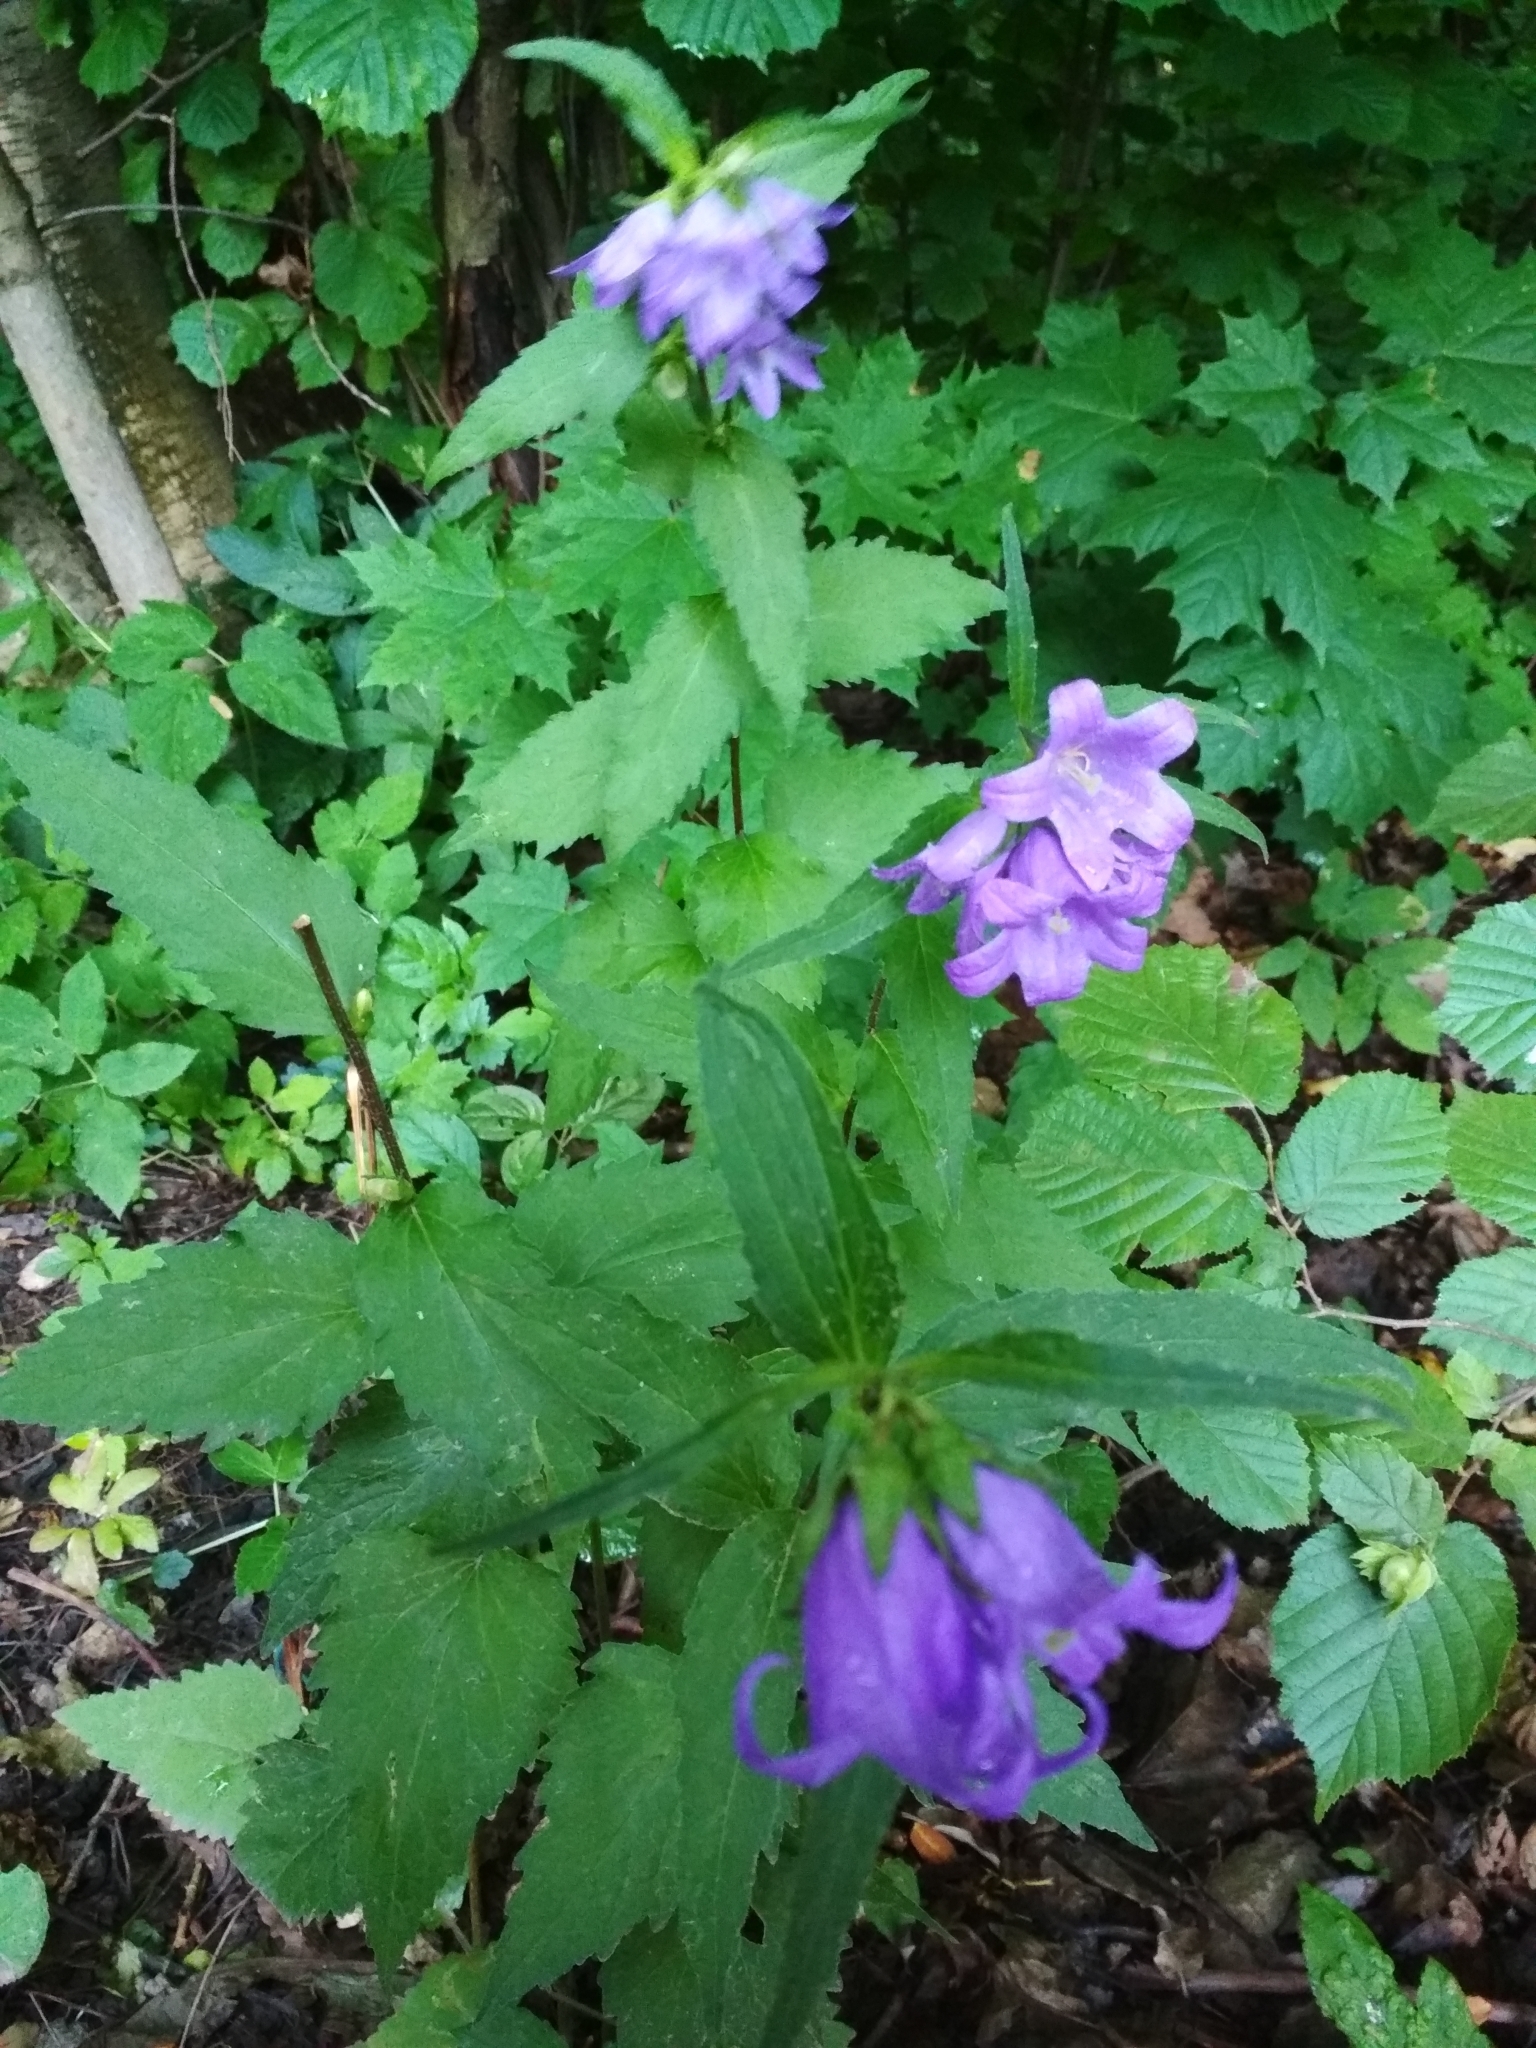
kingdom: Plantae
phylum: Tracheophyta
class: Magnoliopsida
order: Asterales
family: Campanulaceae
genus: Campanula
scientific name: Campanula trachelium
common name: Nettle-leaved bellflower
